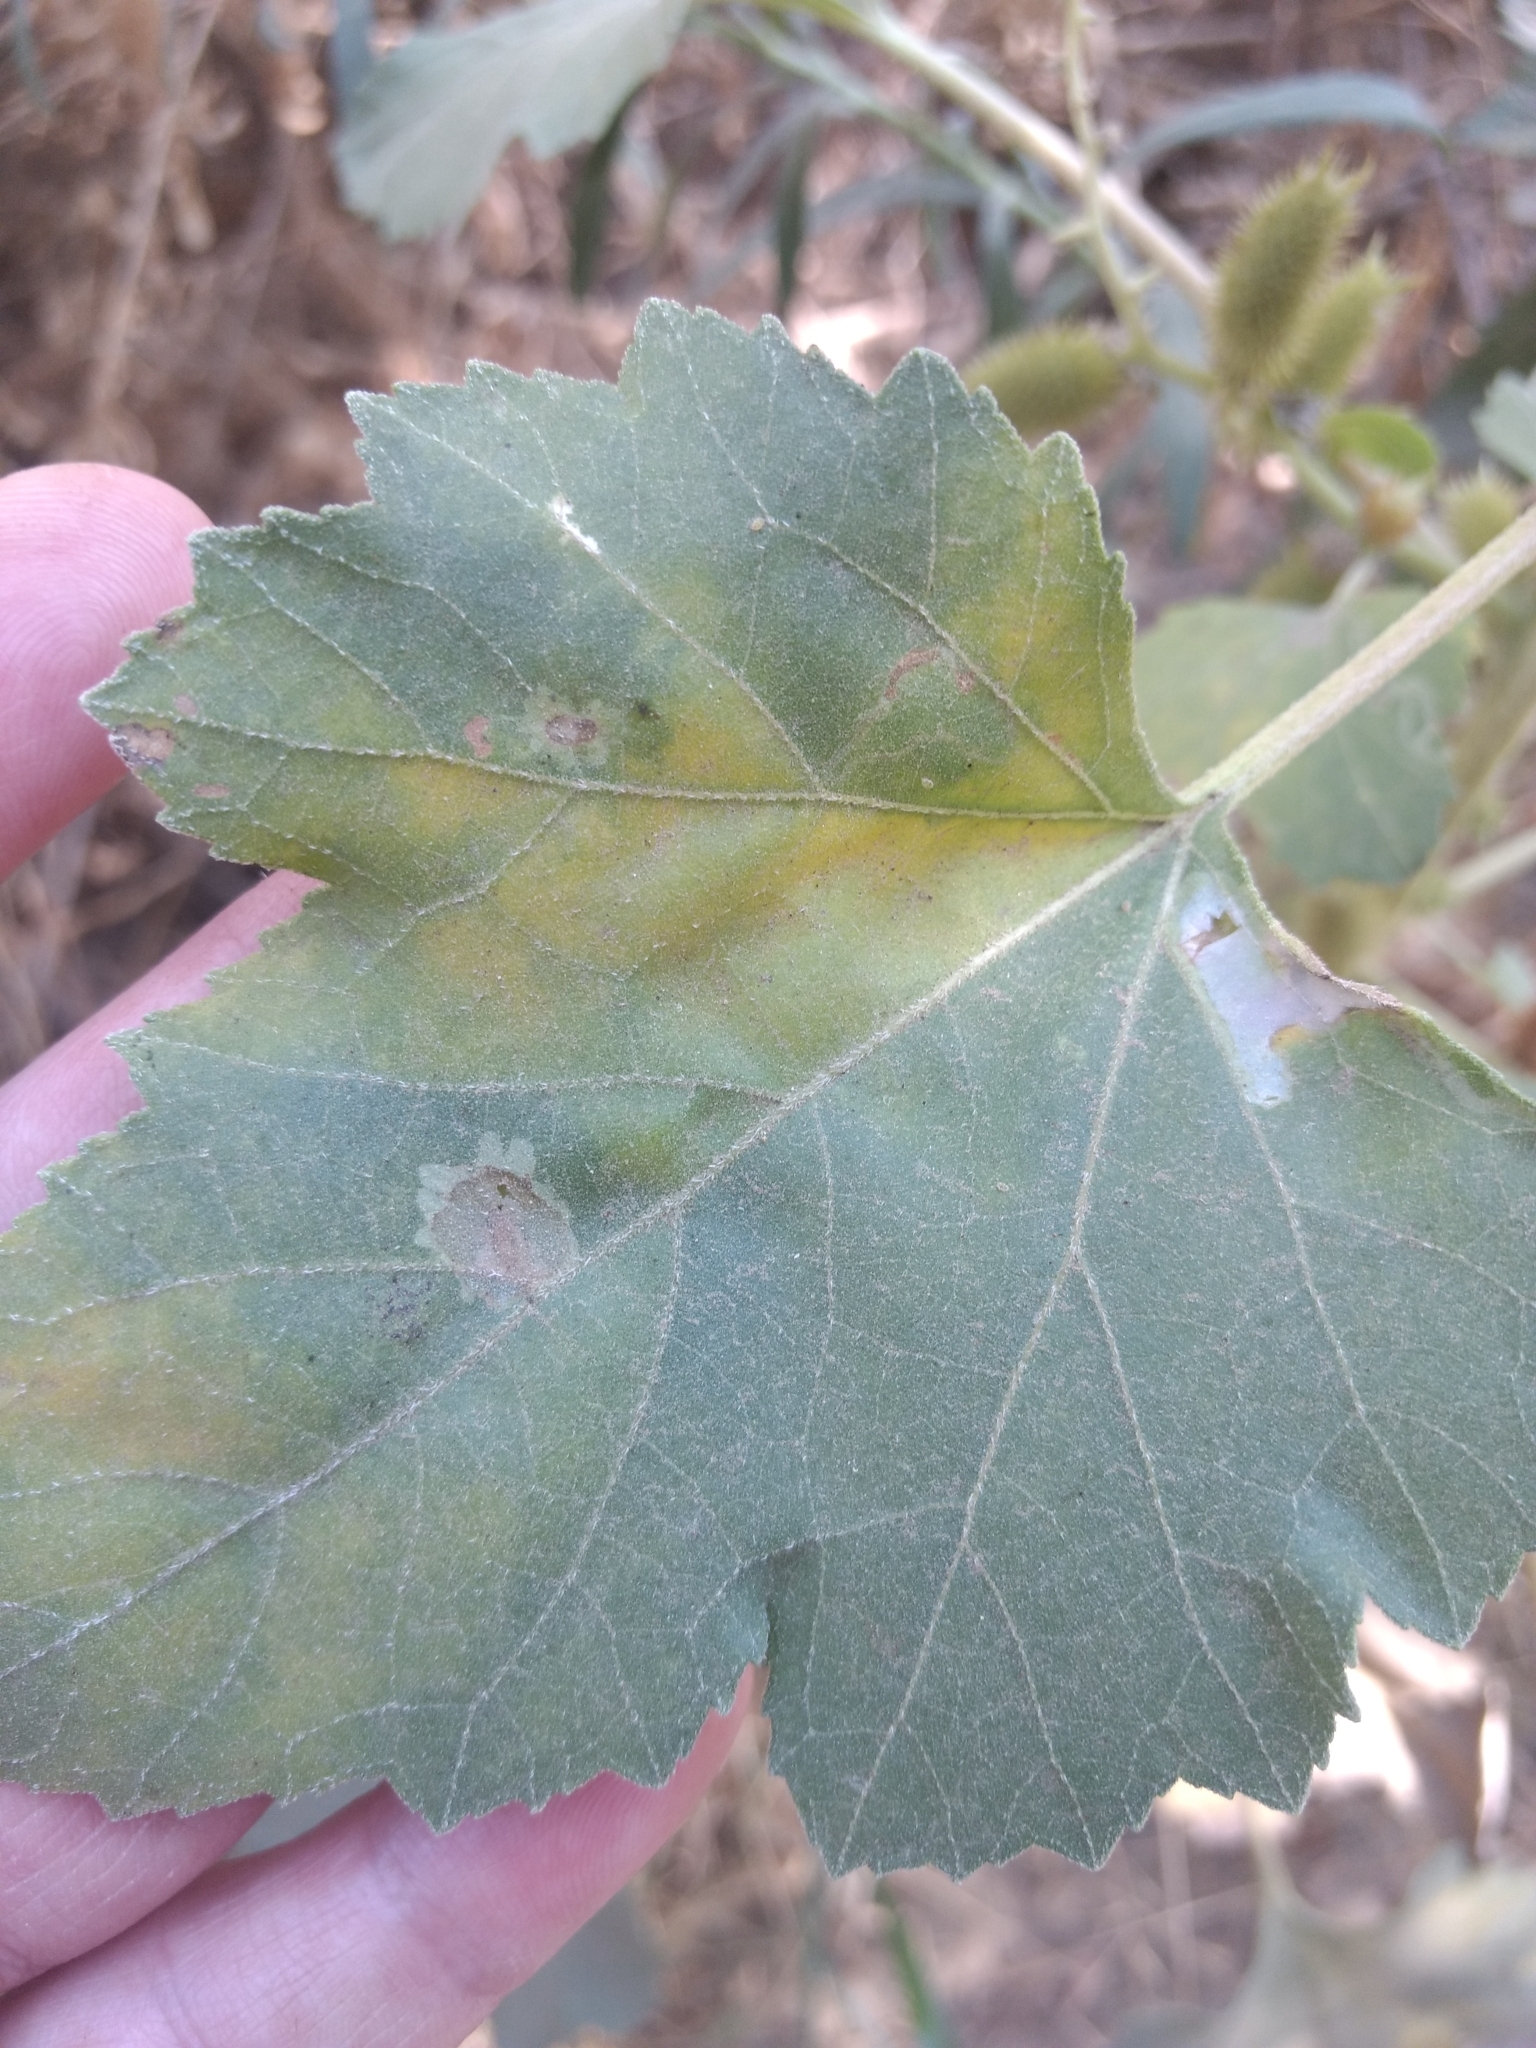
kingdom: Plantae
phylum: Tracheophyta
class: Magnoliopsida
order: Asterales
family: Asteraceae
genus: Xanthium
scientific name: Xanthium strumarium
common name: Rough cocklebur
